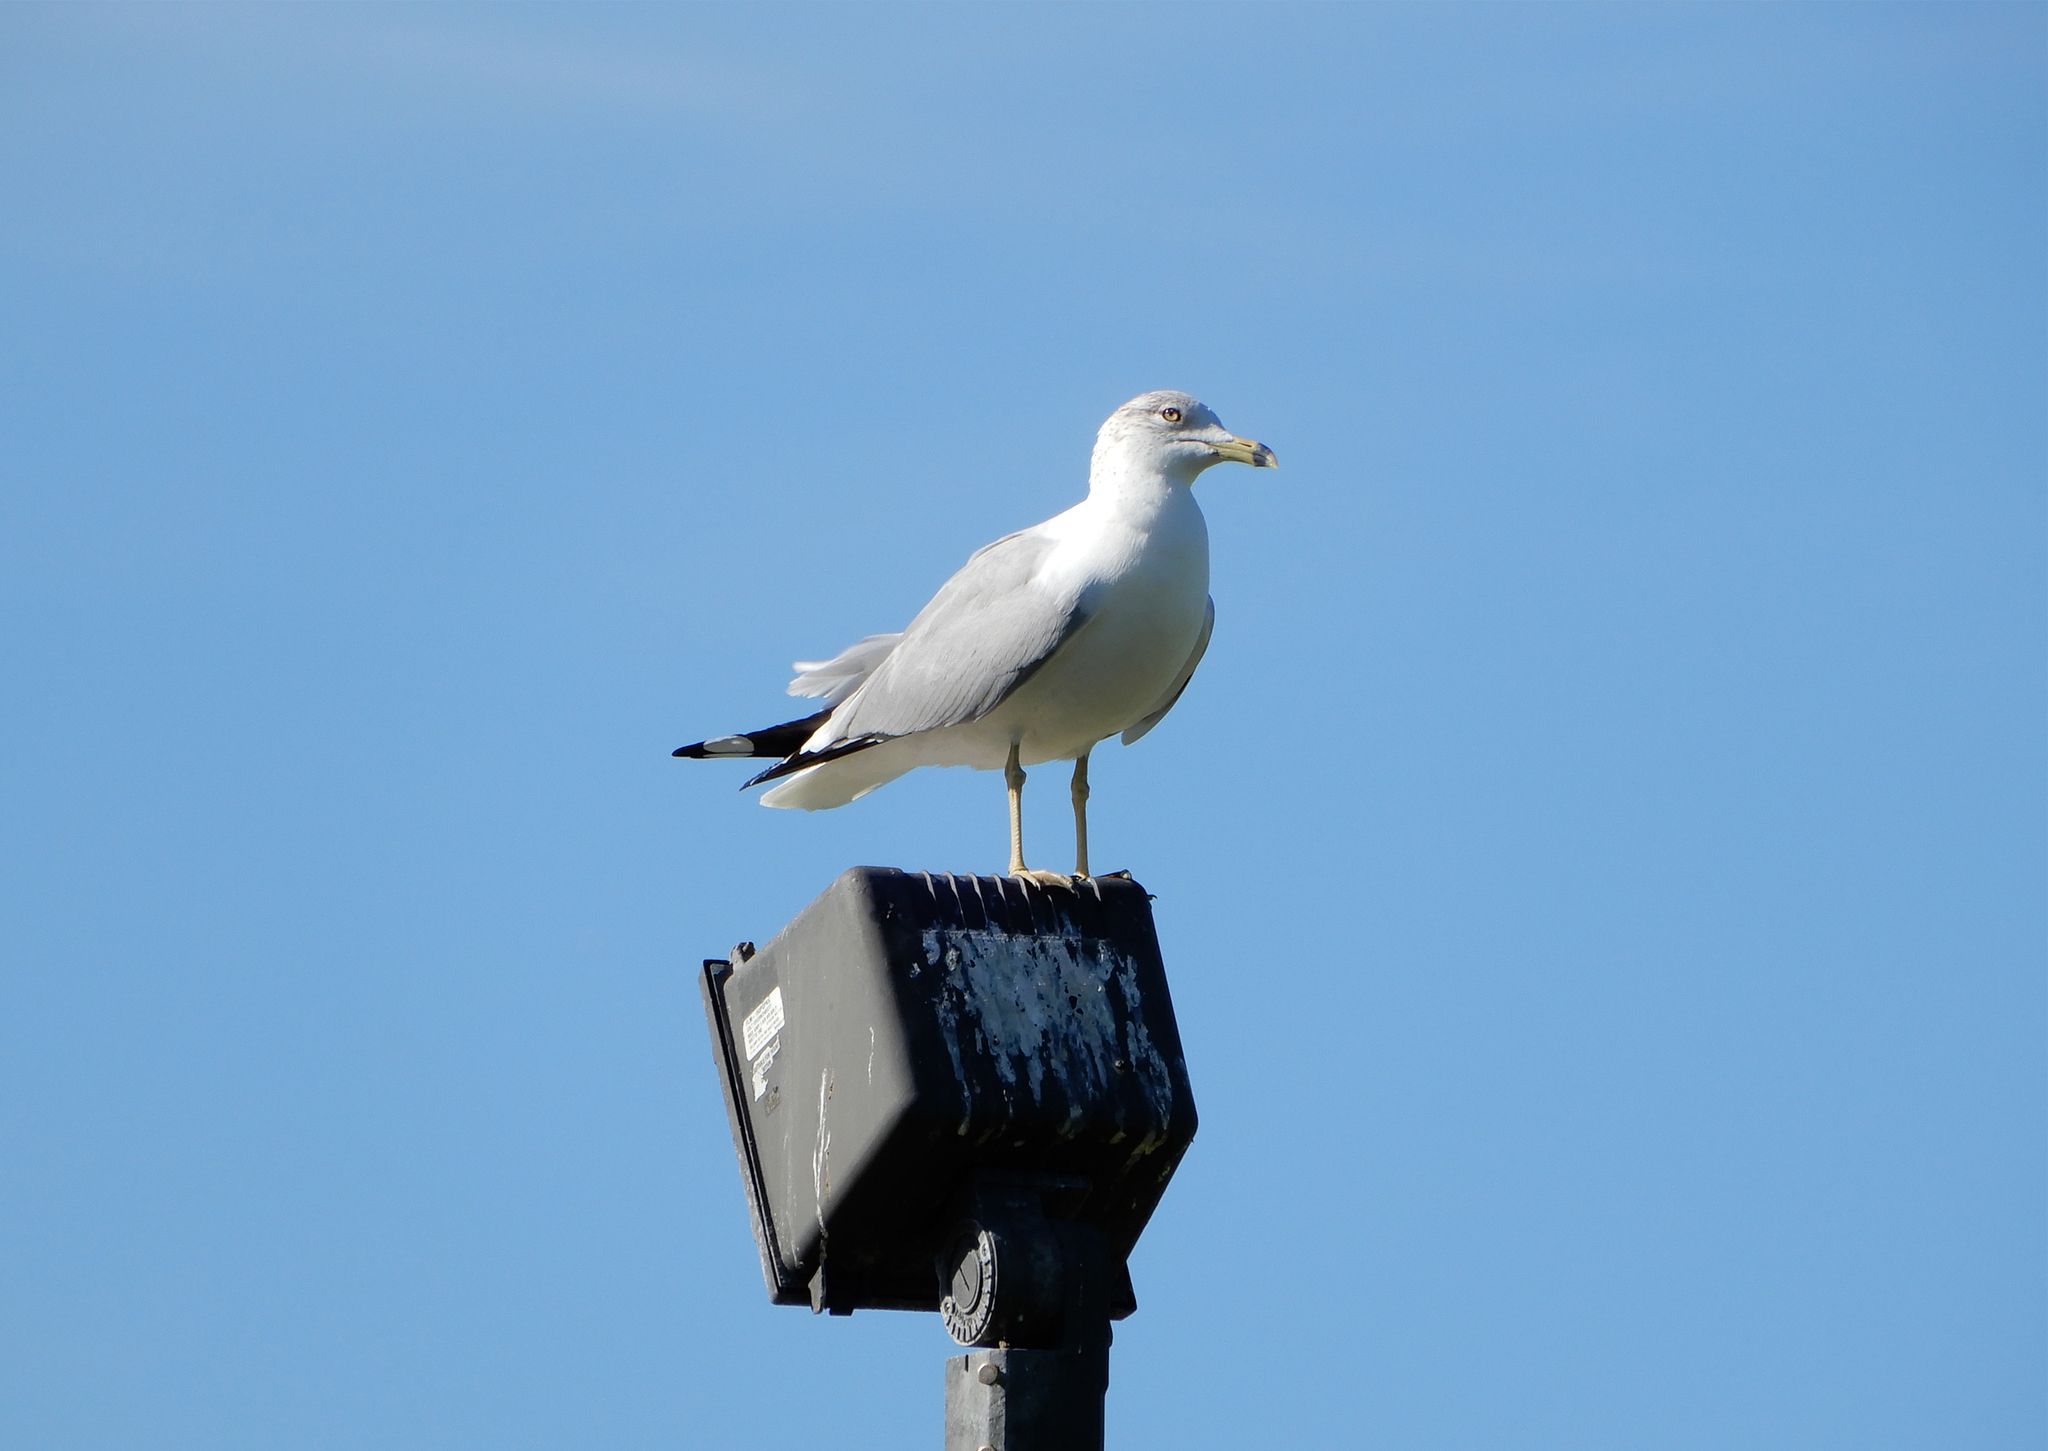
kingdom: Animalia
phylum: Chordata
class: Aves
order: Charadriiformes
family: Laridae
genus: Larus
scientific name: Larus delawarensis
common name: Ring-billed gull
